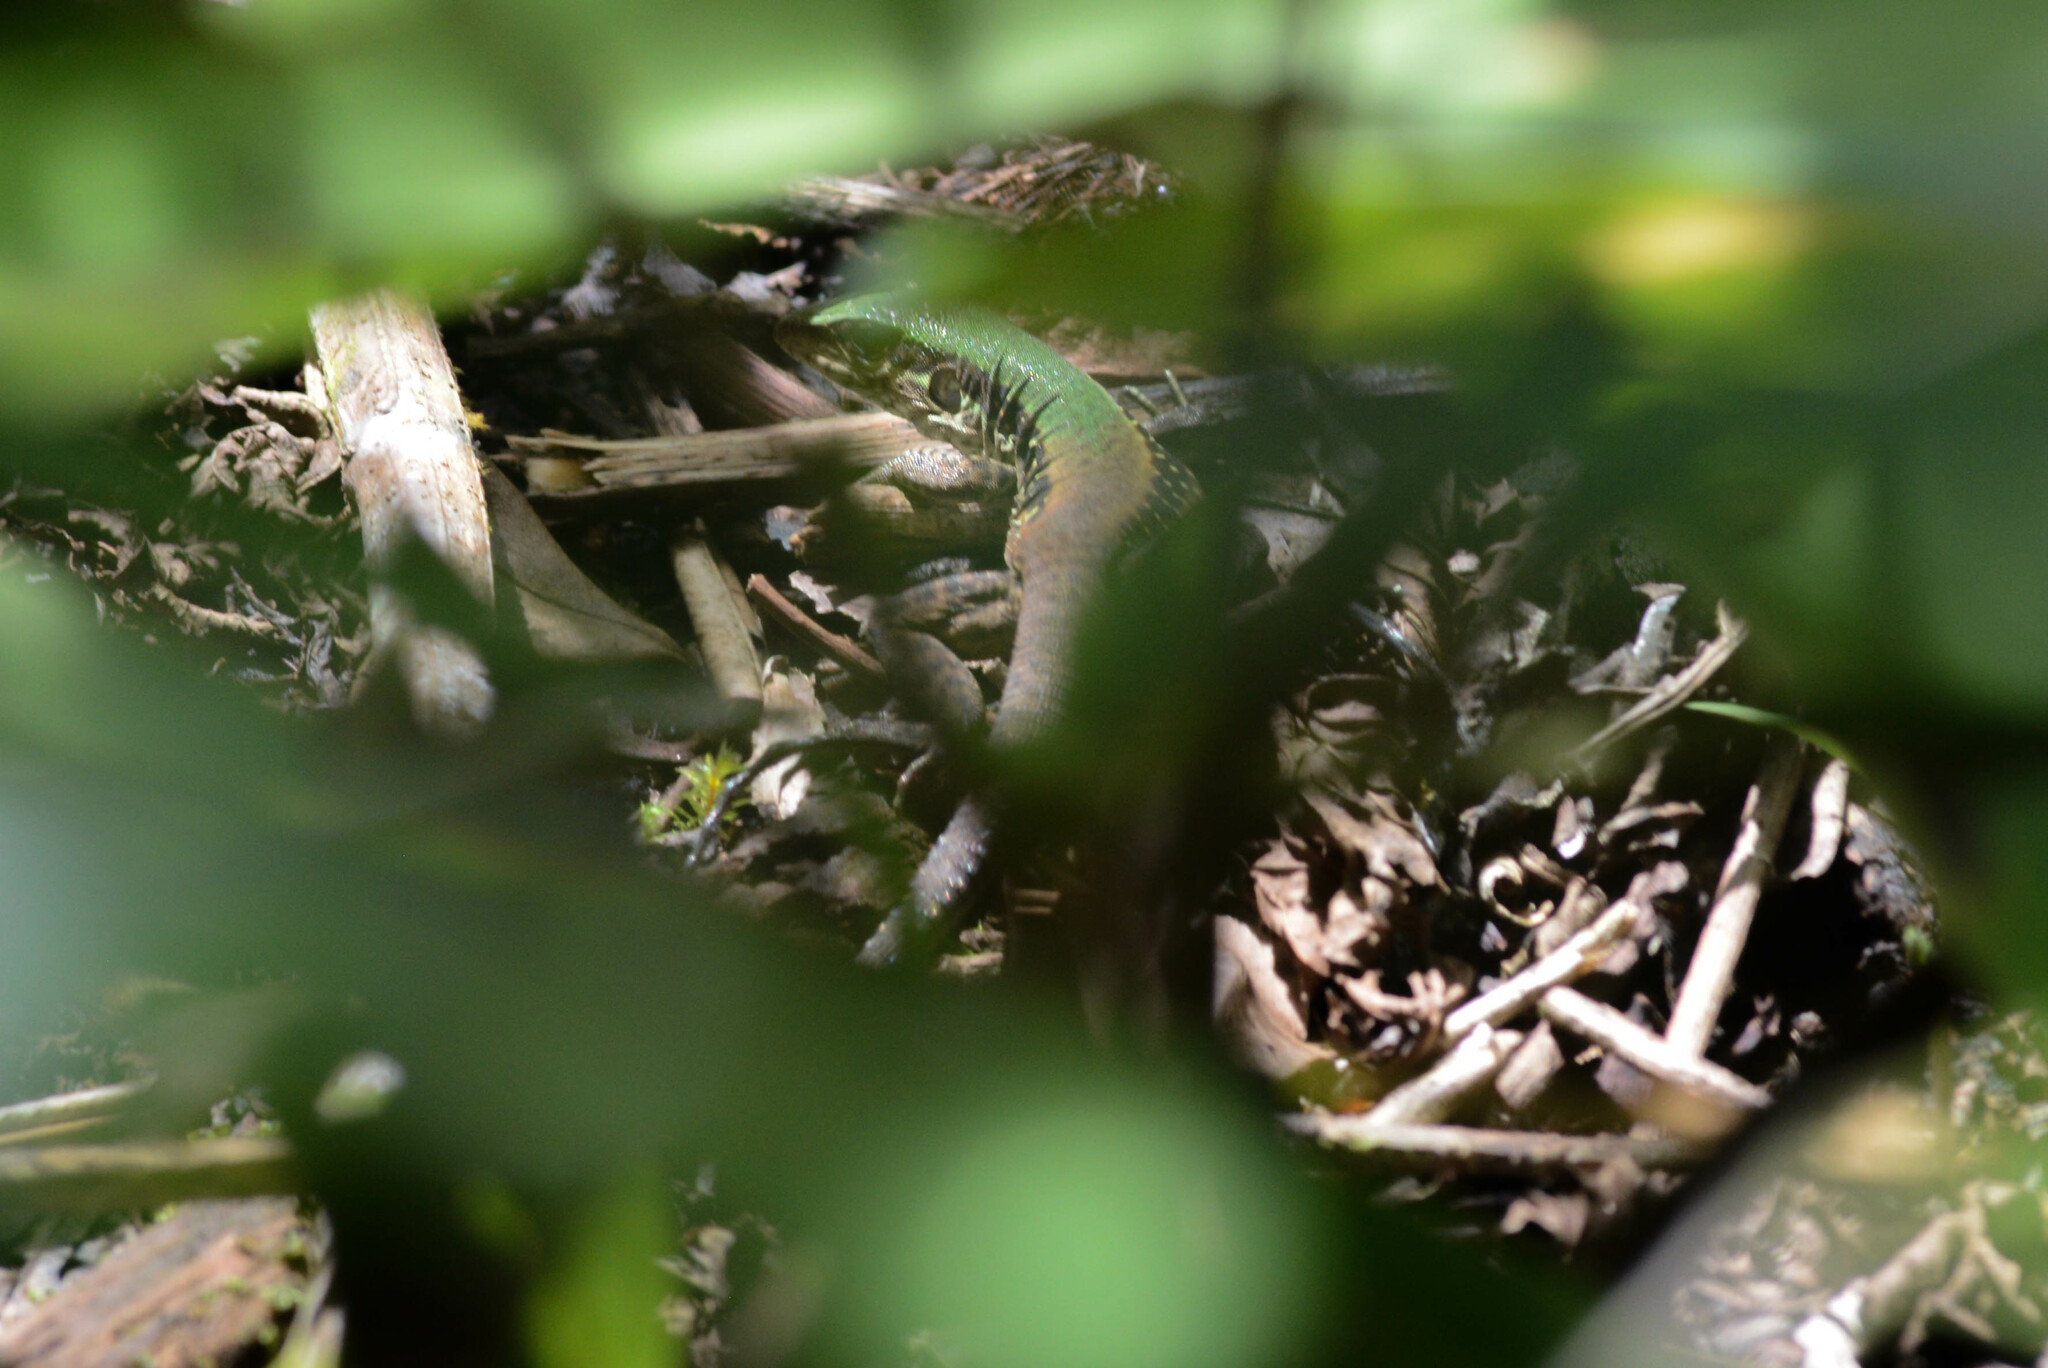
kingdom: Animalia
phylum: Chordata
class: Squamata
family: Teiidae
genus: Ameiva
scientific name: Ameiva ameiva
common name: Giant ameiva
